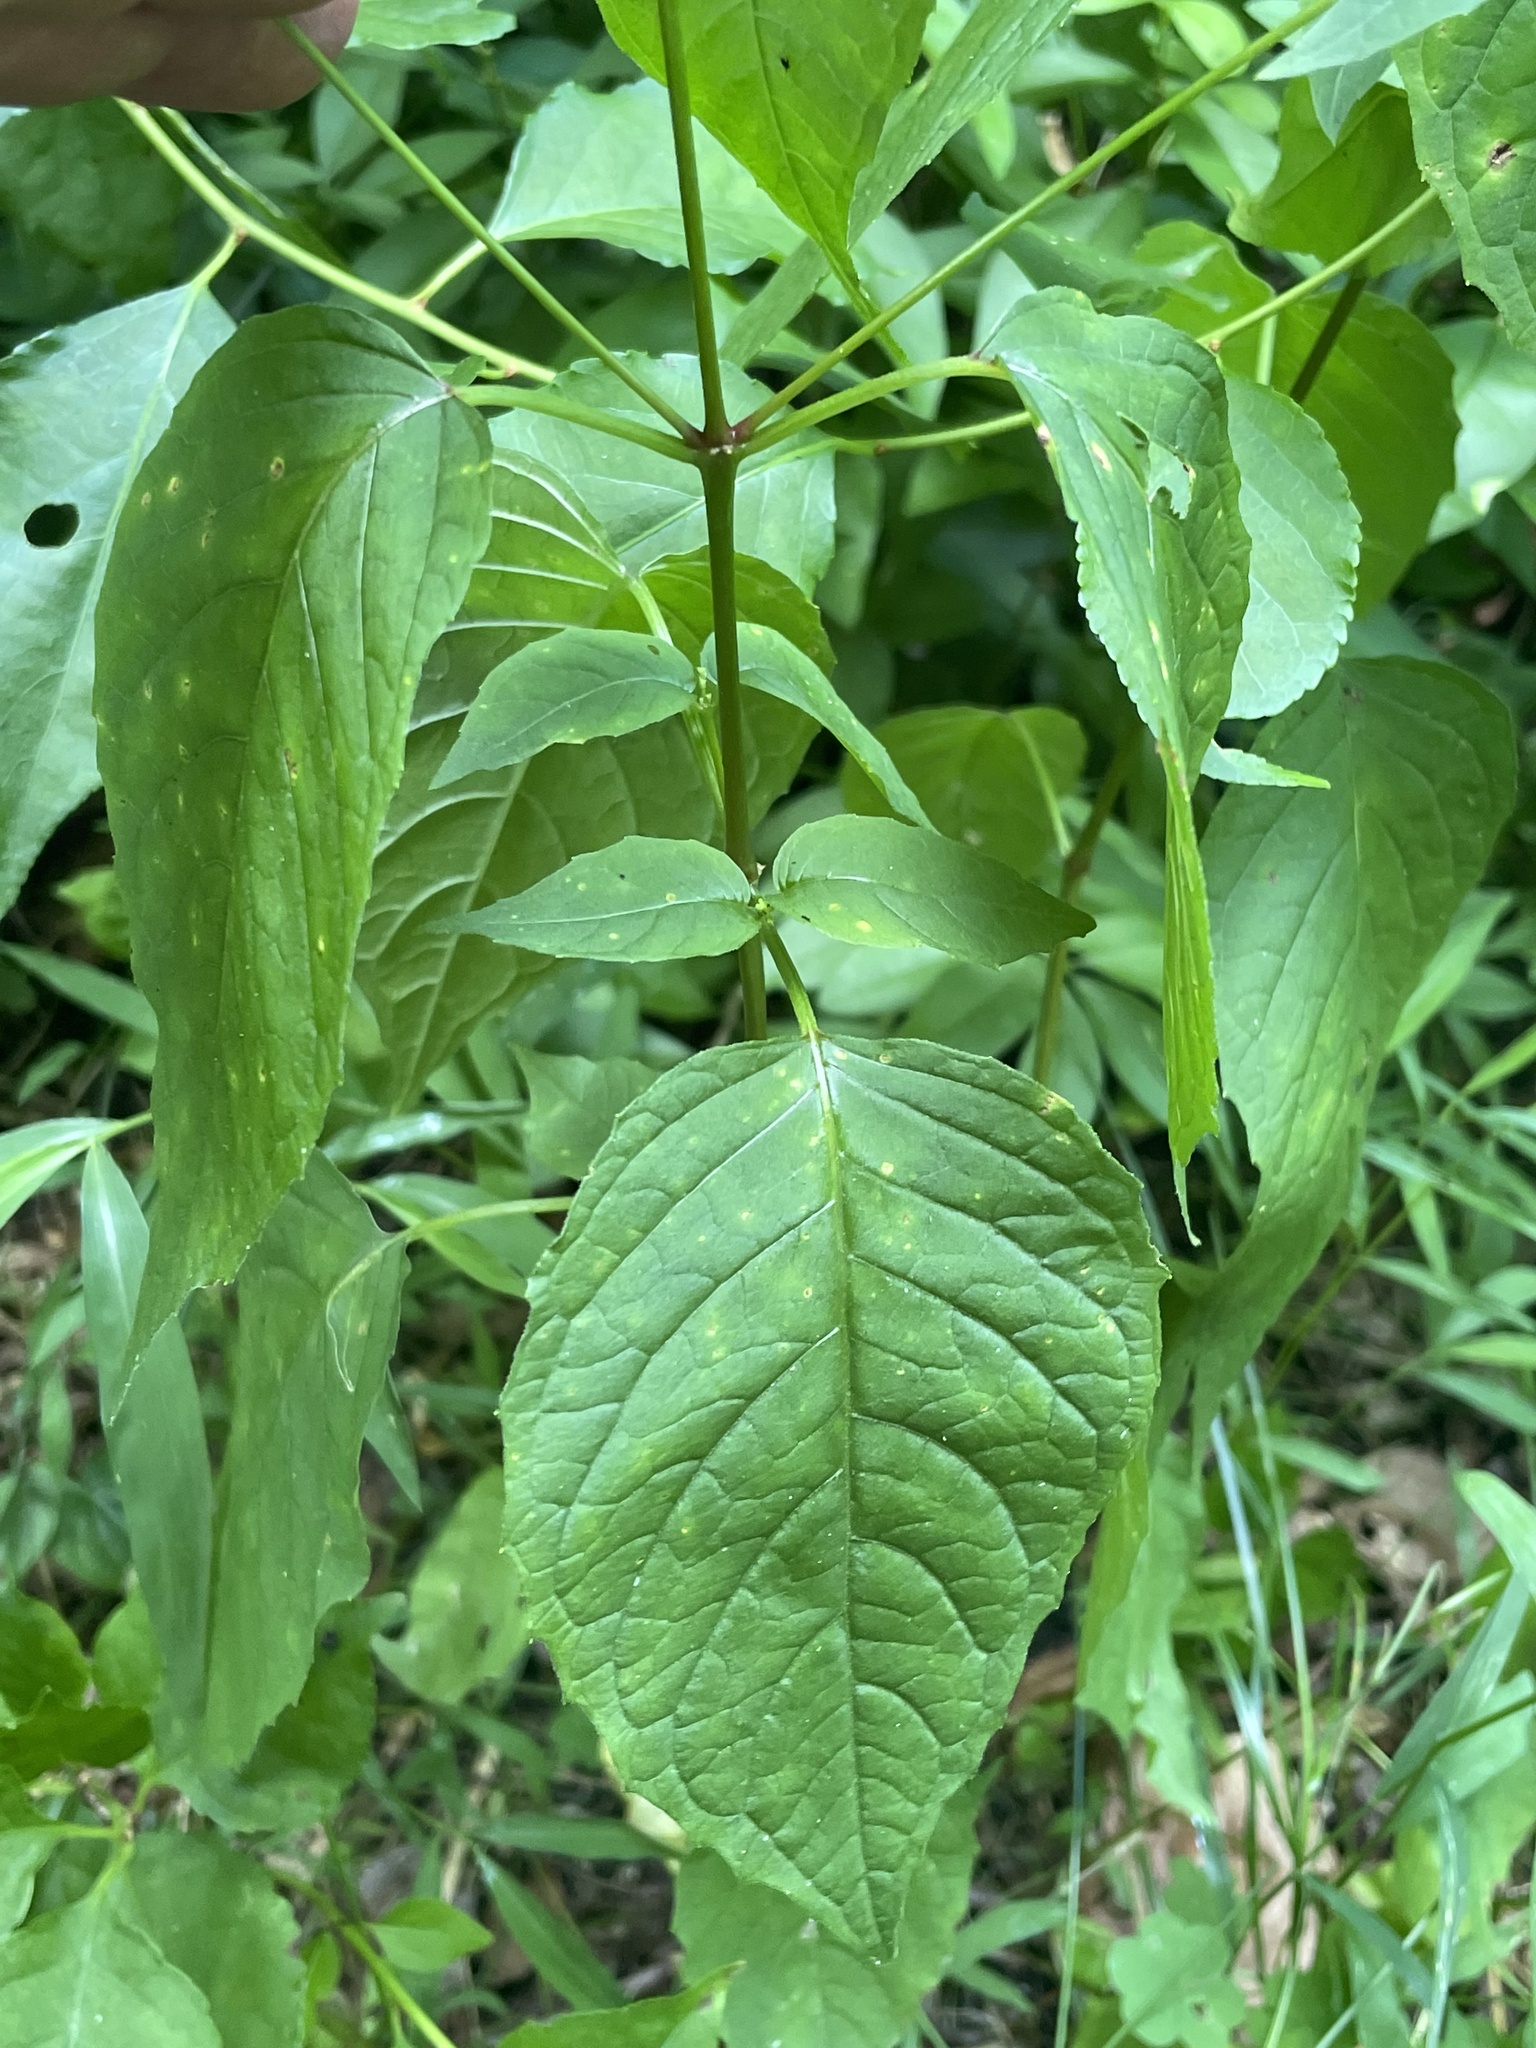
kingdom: Plantae
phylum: Tracheophyta
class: Magnoliopsida
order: Myrtales
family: Onagraceae
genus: Circaea
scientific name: Circaea canadensis
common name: Broad-leaved enchanter's nightshade
